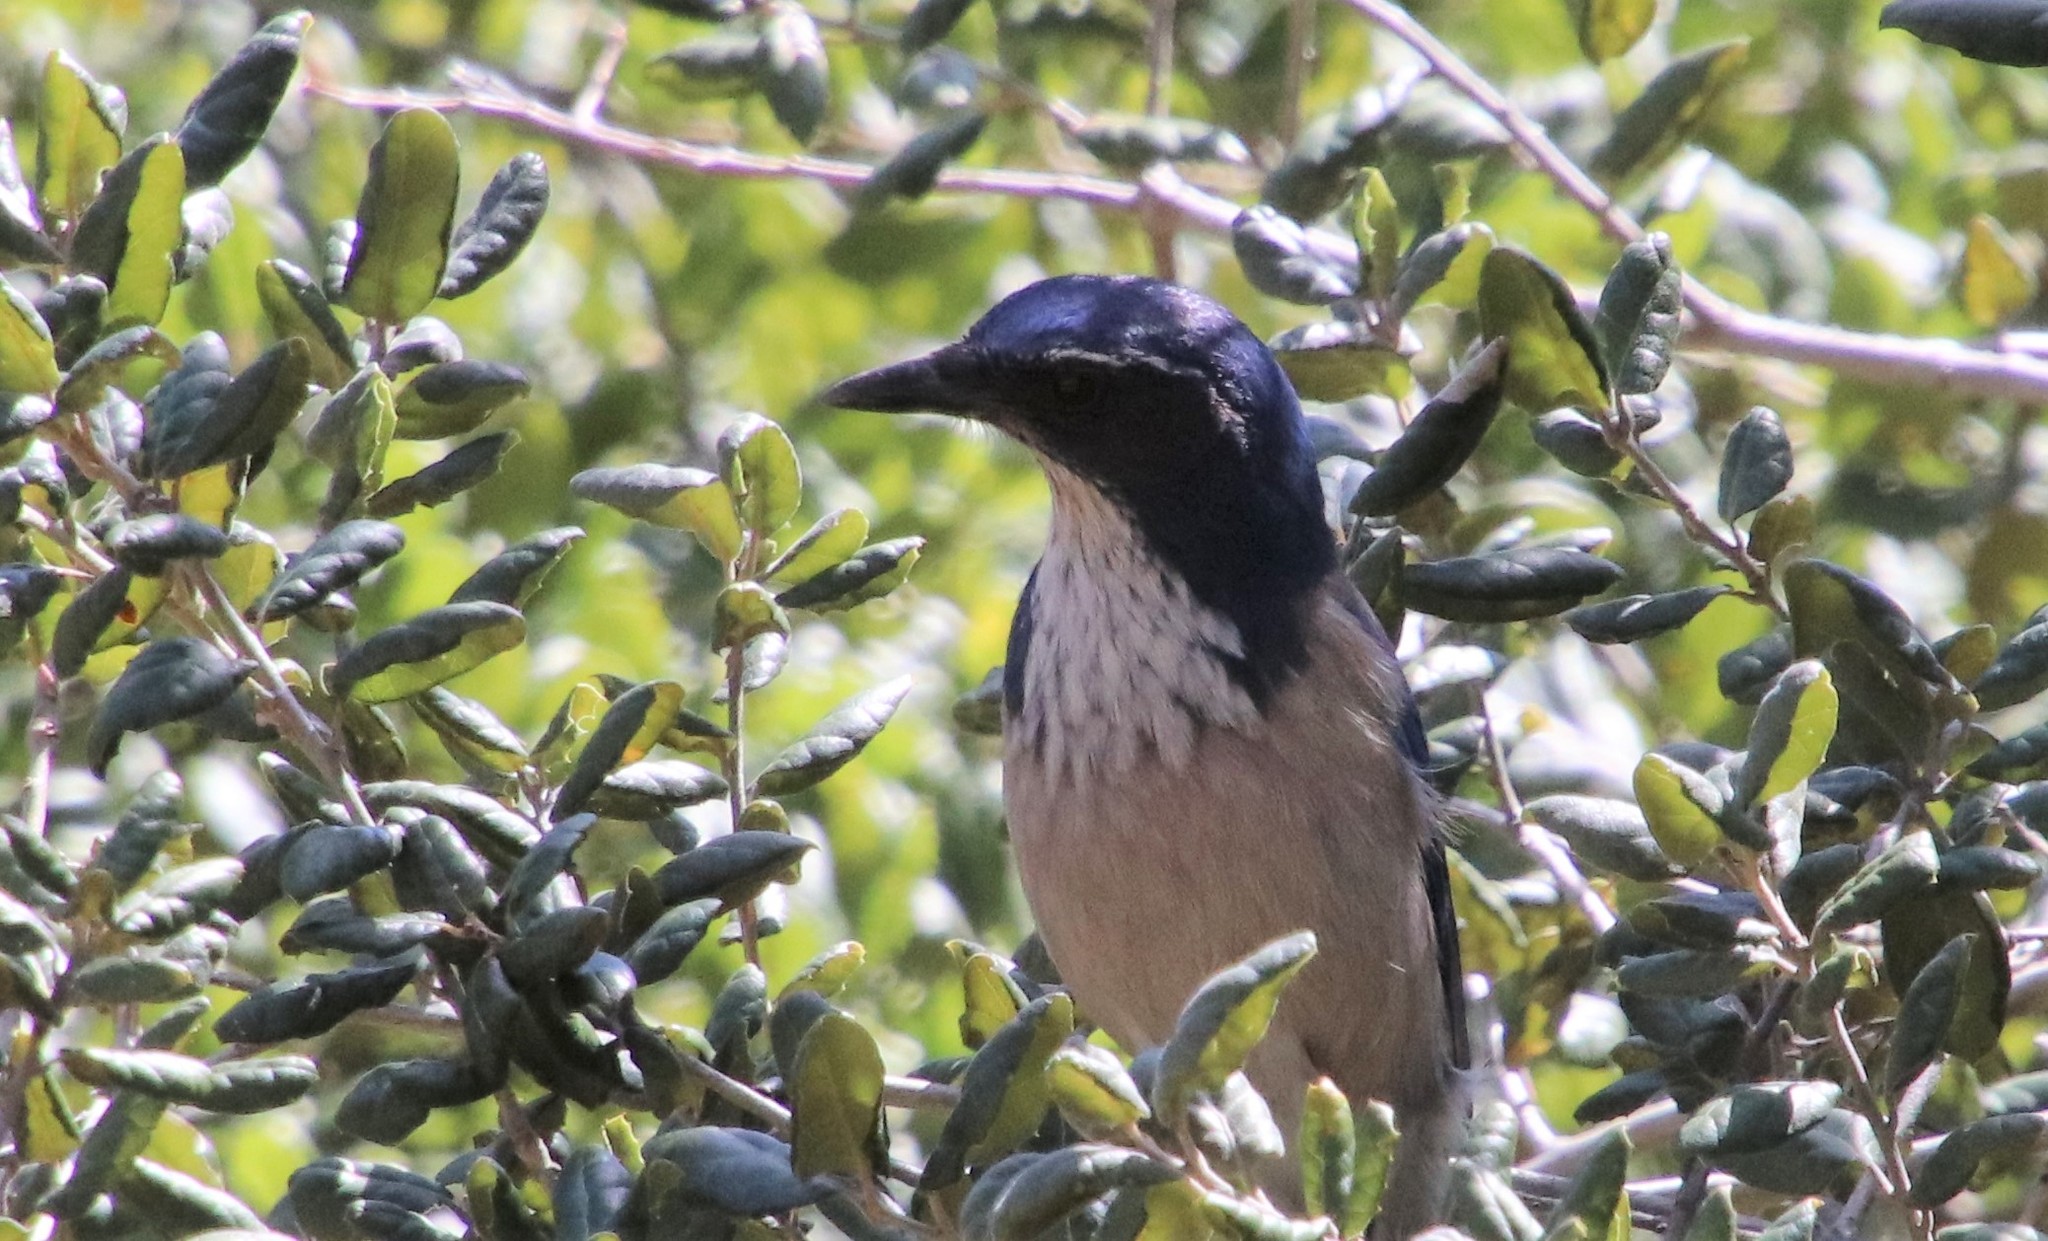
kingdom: Animalia
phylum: Chordata
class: Aves
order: Passeriformes
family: Corvidae
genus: Aphelocoma
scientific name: Aphelocoma californica
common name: California scrub-jay
